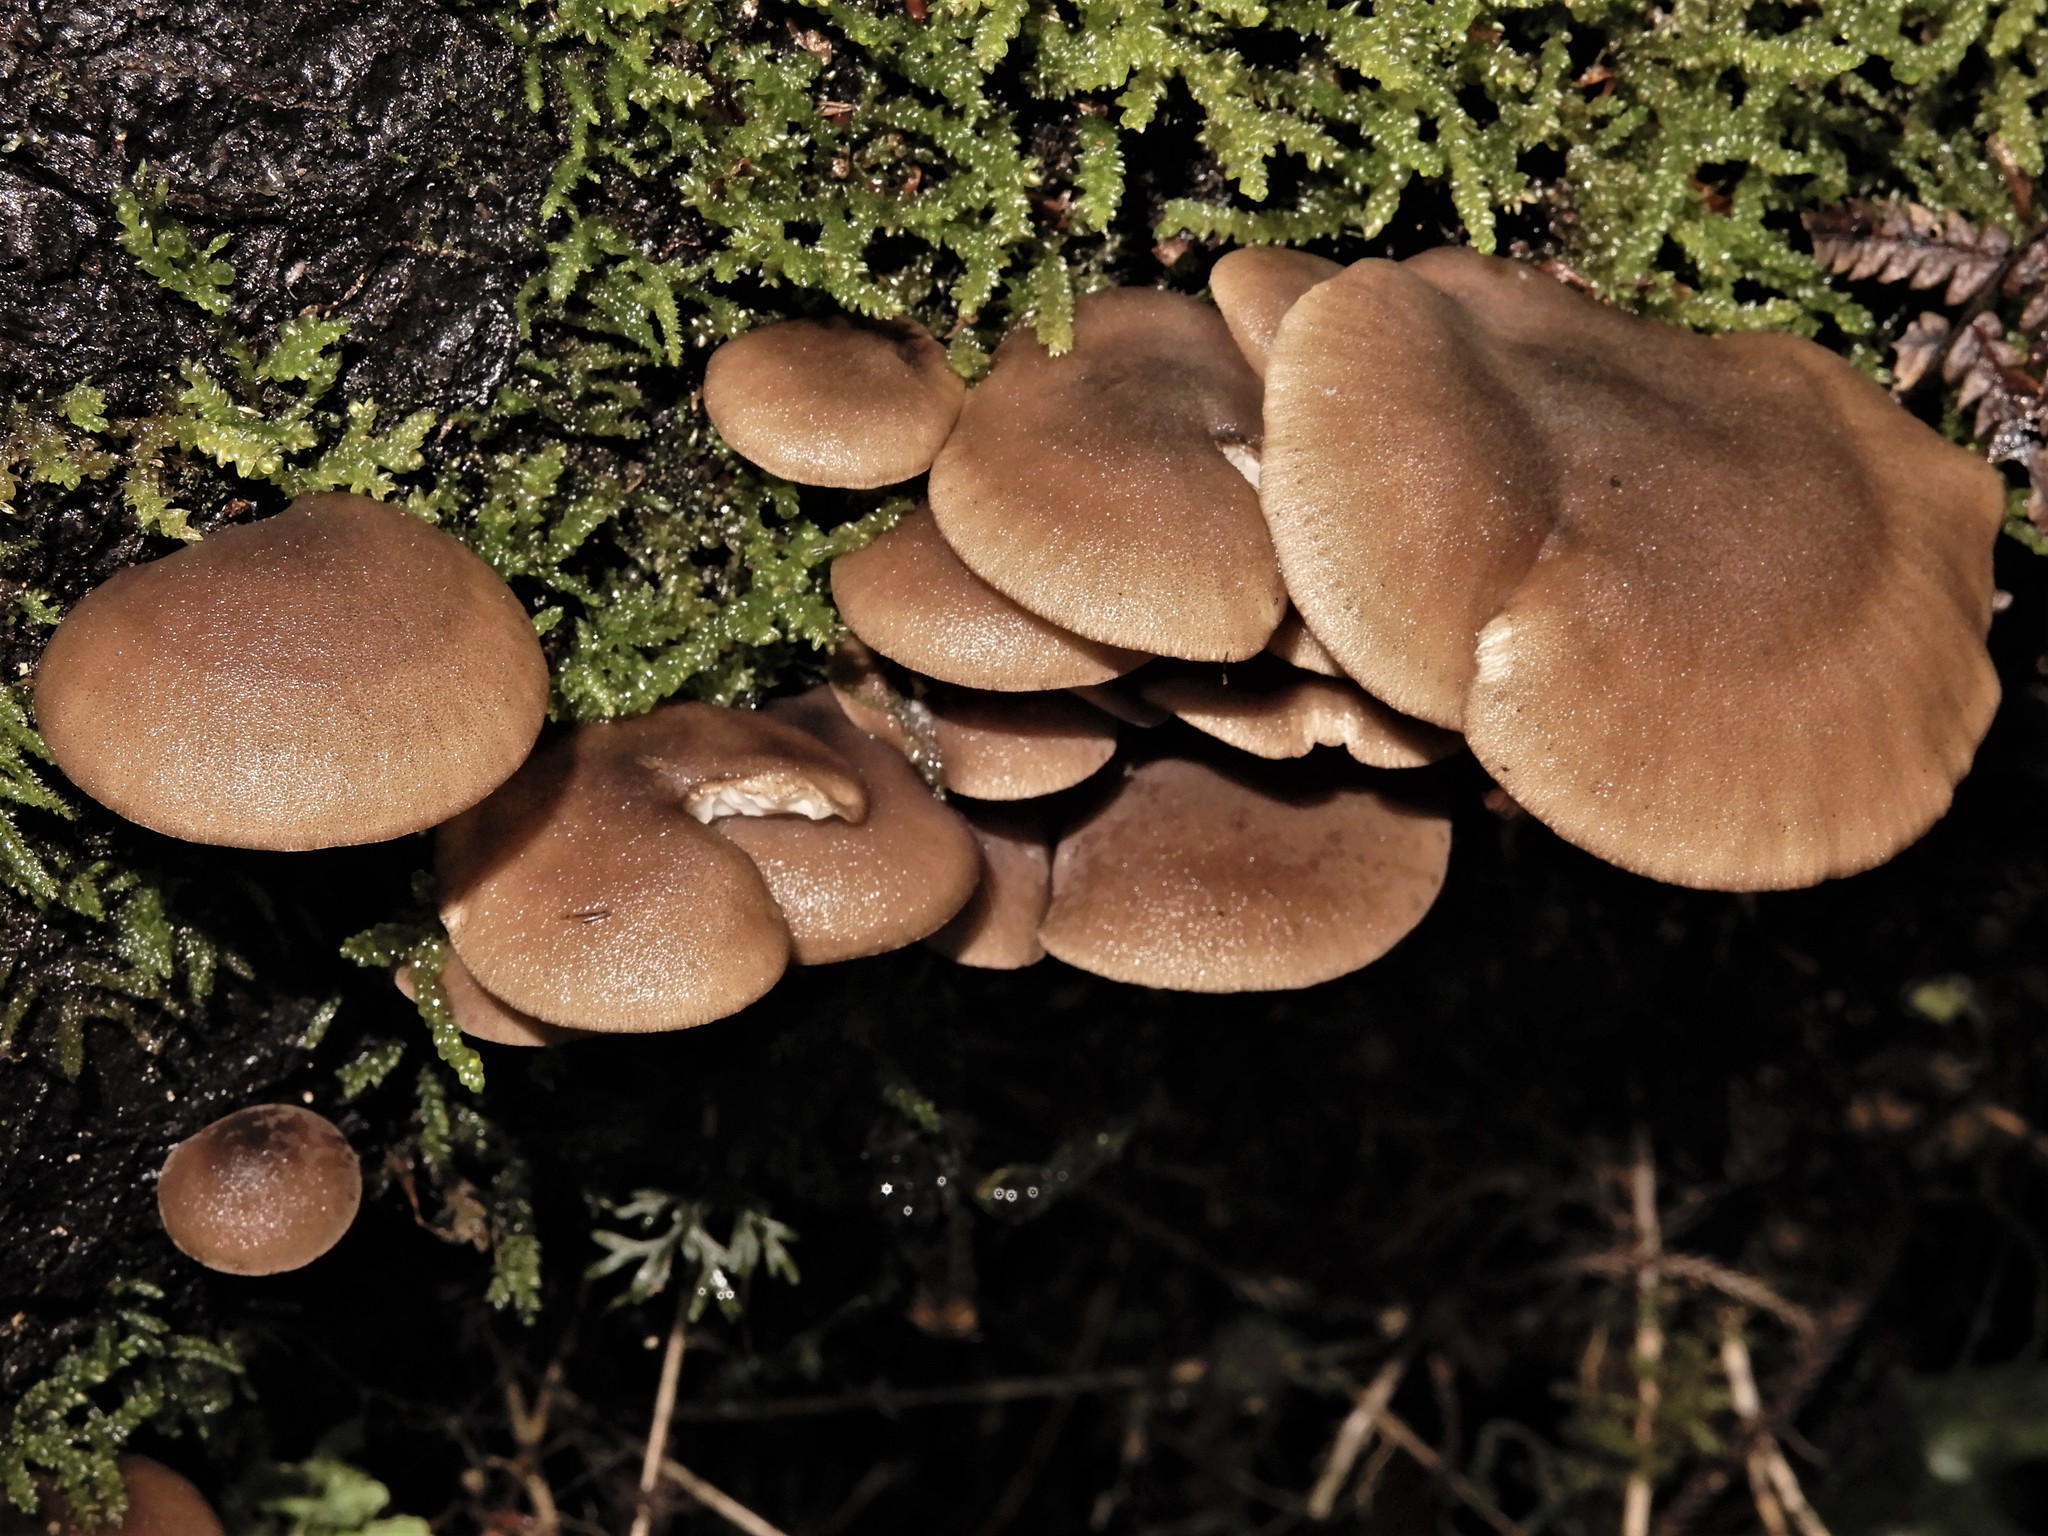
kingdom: Fungi
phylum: Basidiomycota
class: Agaricomycetes
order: Agaricales
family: Tricholomataceae
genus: Pleurella
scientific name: Pleurella ardesiaca
